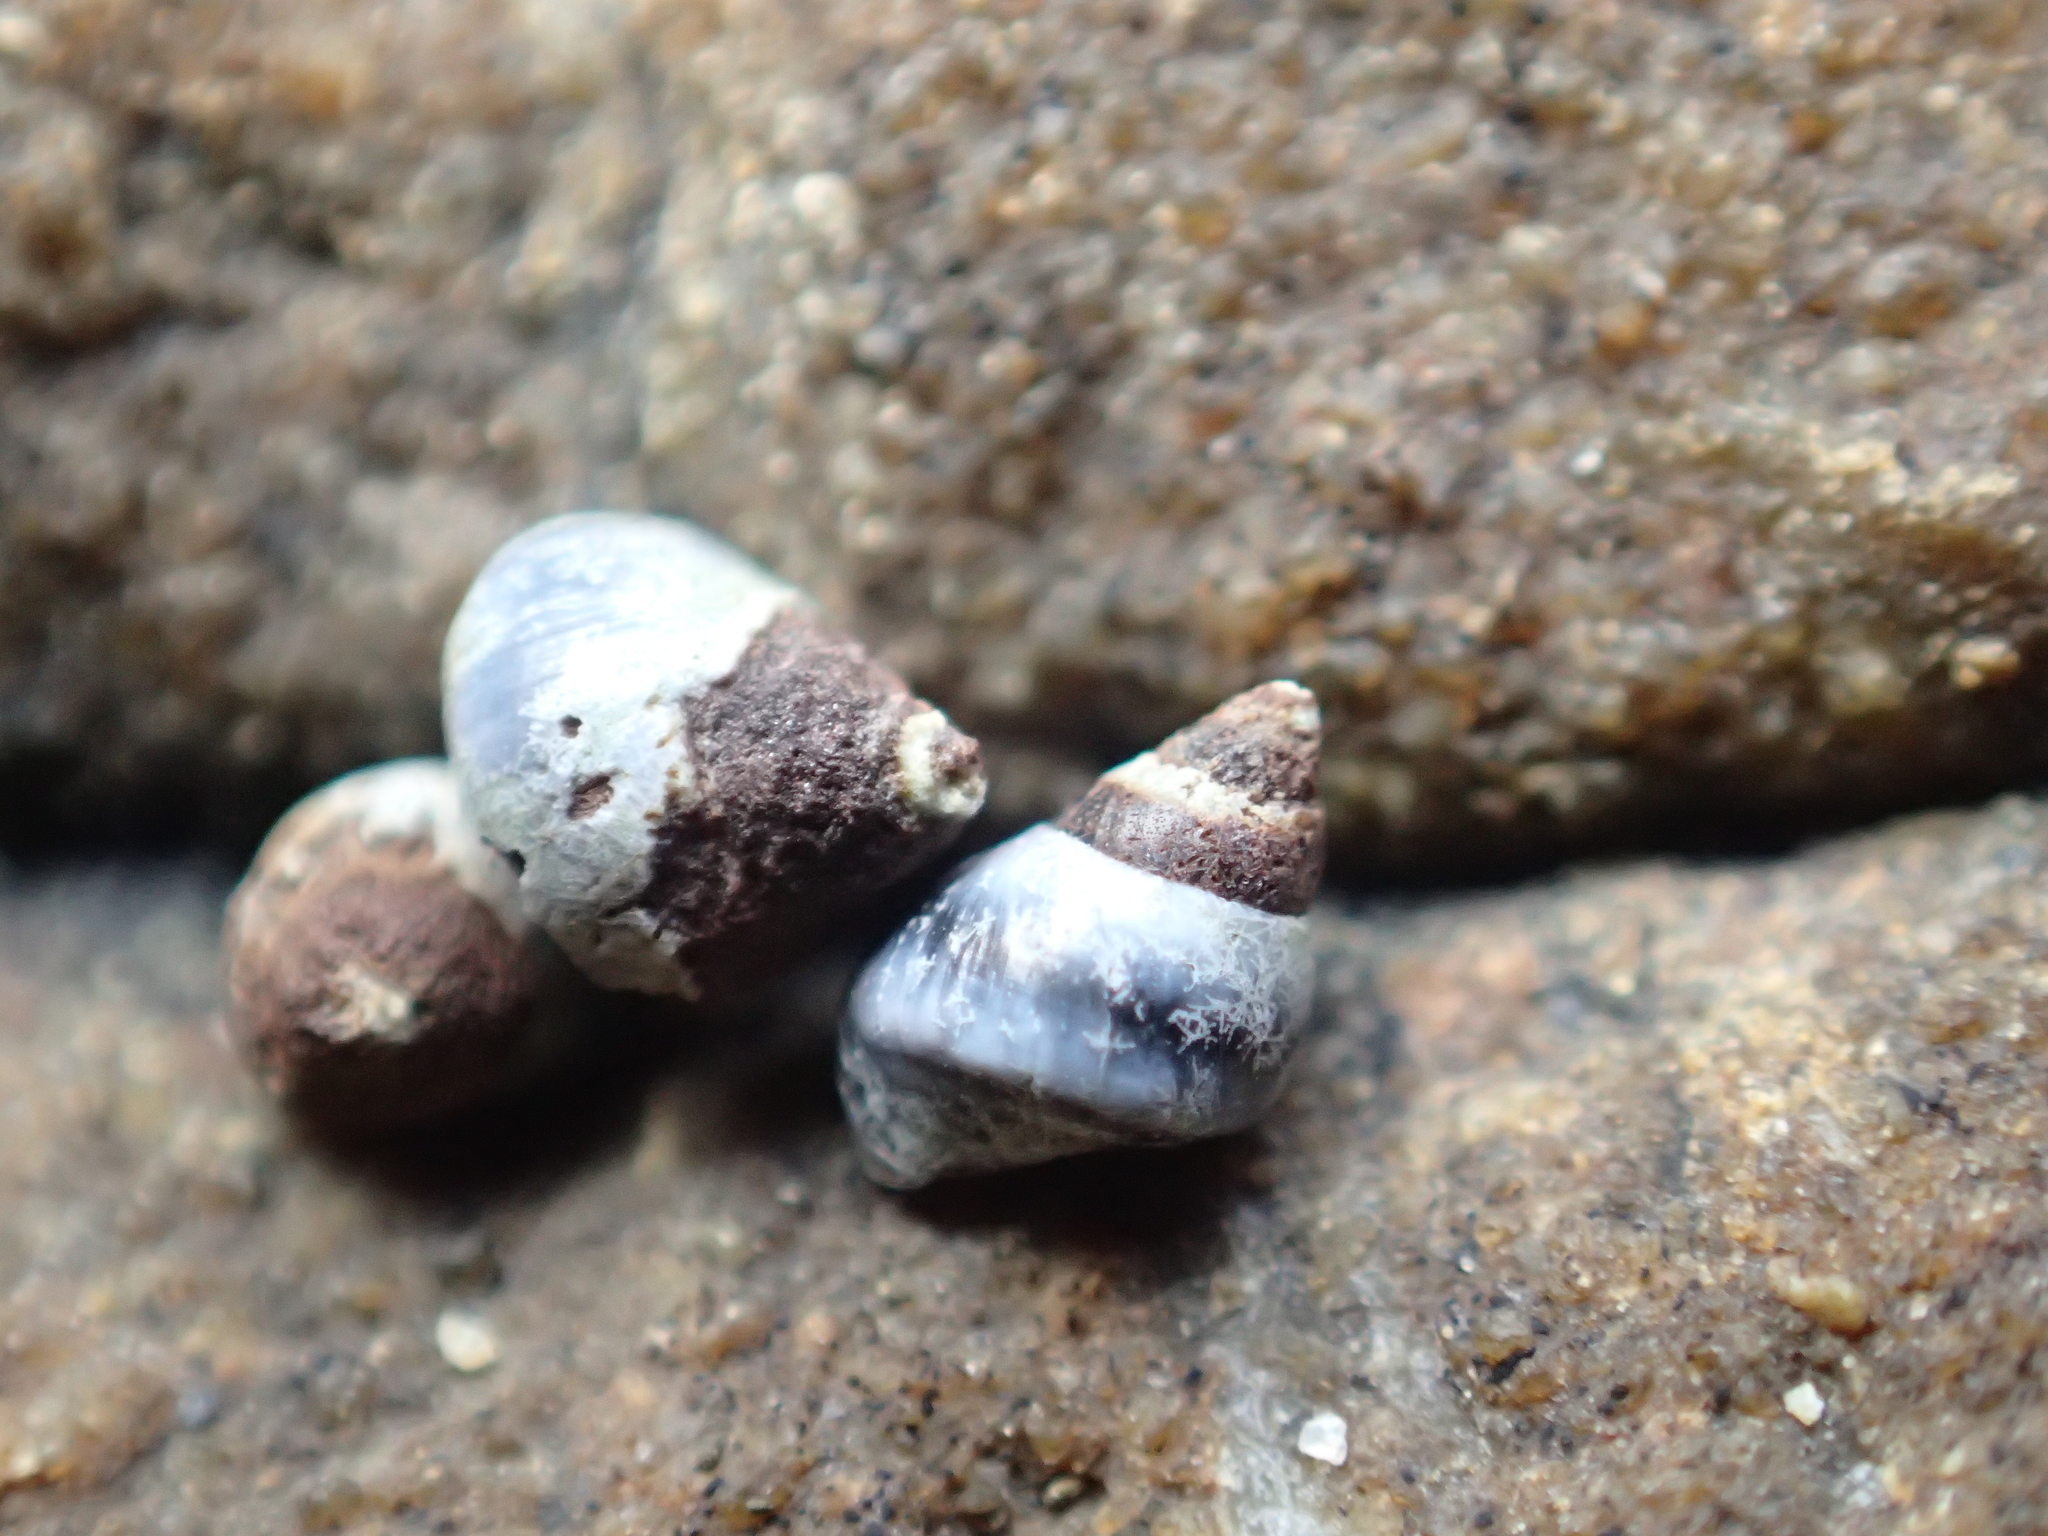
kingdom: Animalia
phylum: Mollusca
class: Gastropoda
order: Littorinimorpha
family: Littorinidae
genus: Austrolittorina
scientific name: Austrolittorina antipodum
